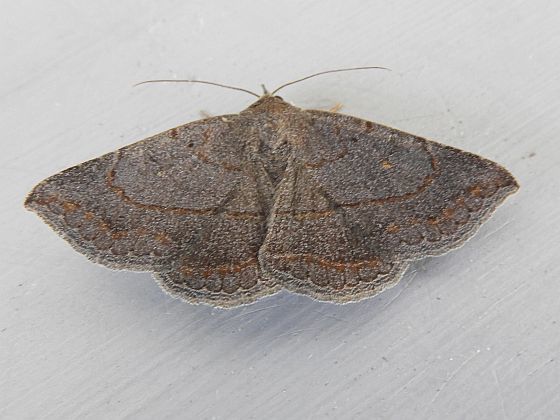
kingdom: Animalia
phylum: Arthropoda
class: Insecta
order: Lepidoptera
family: Erebidae
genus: Lesmone
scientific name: Lesmone griseipennis
